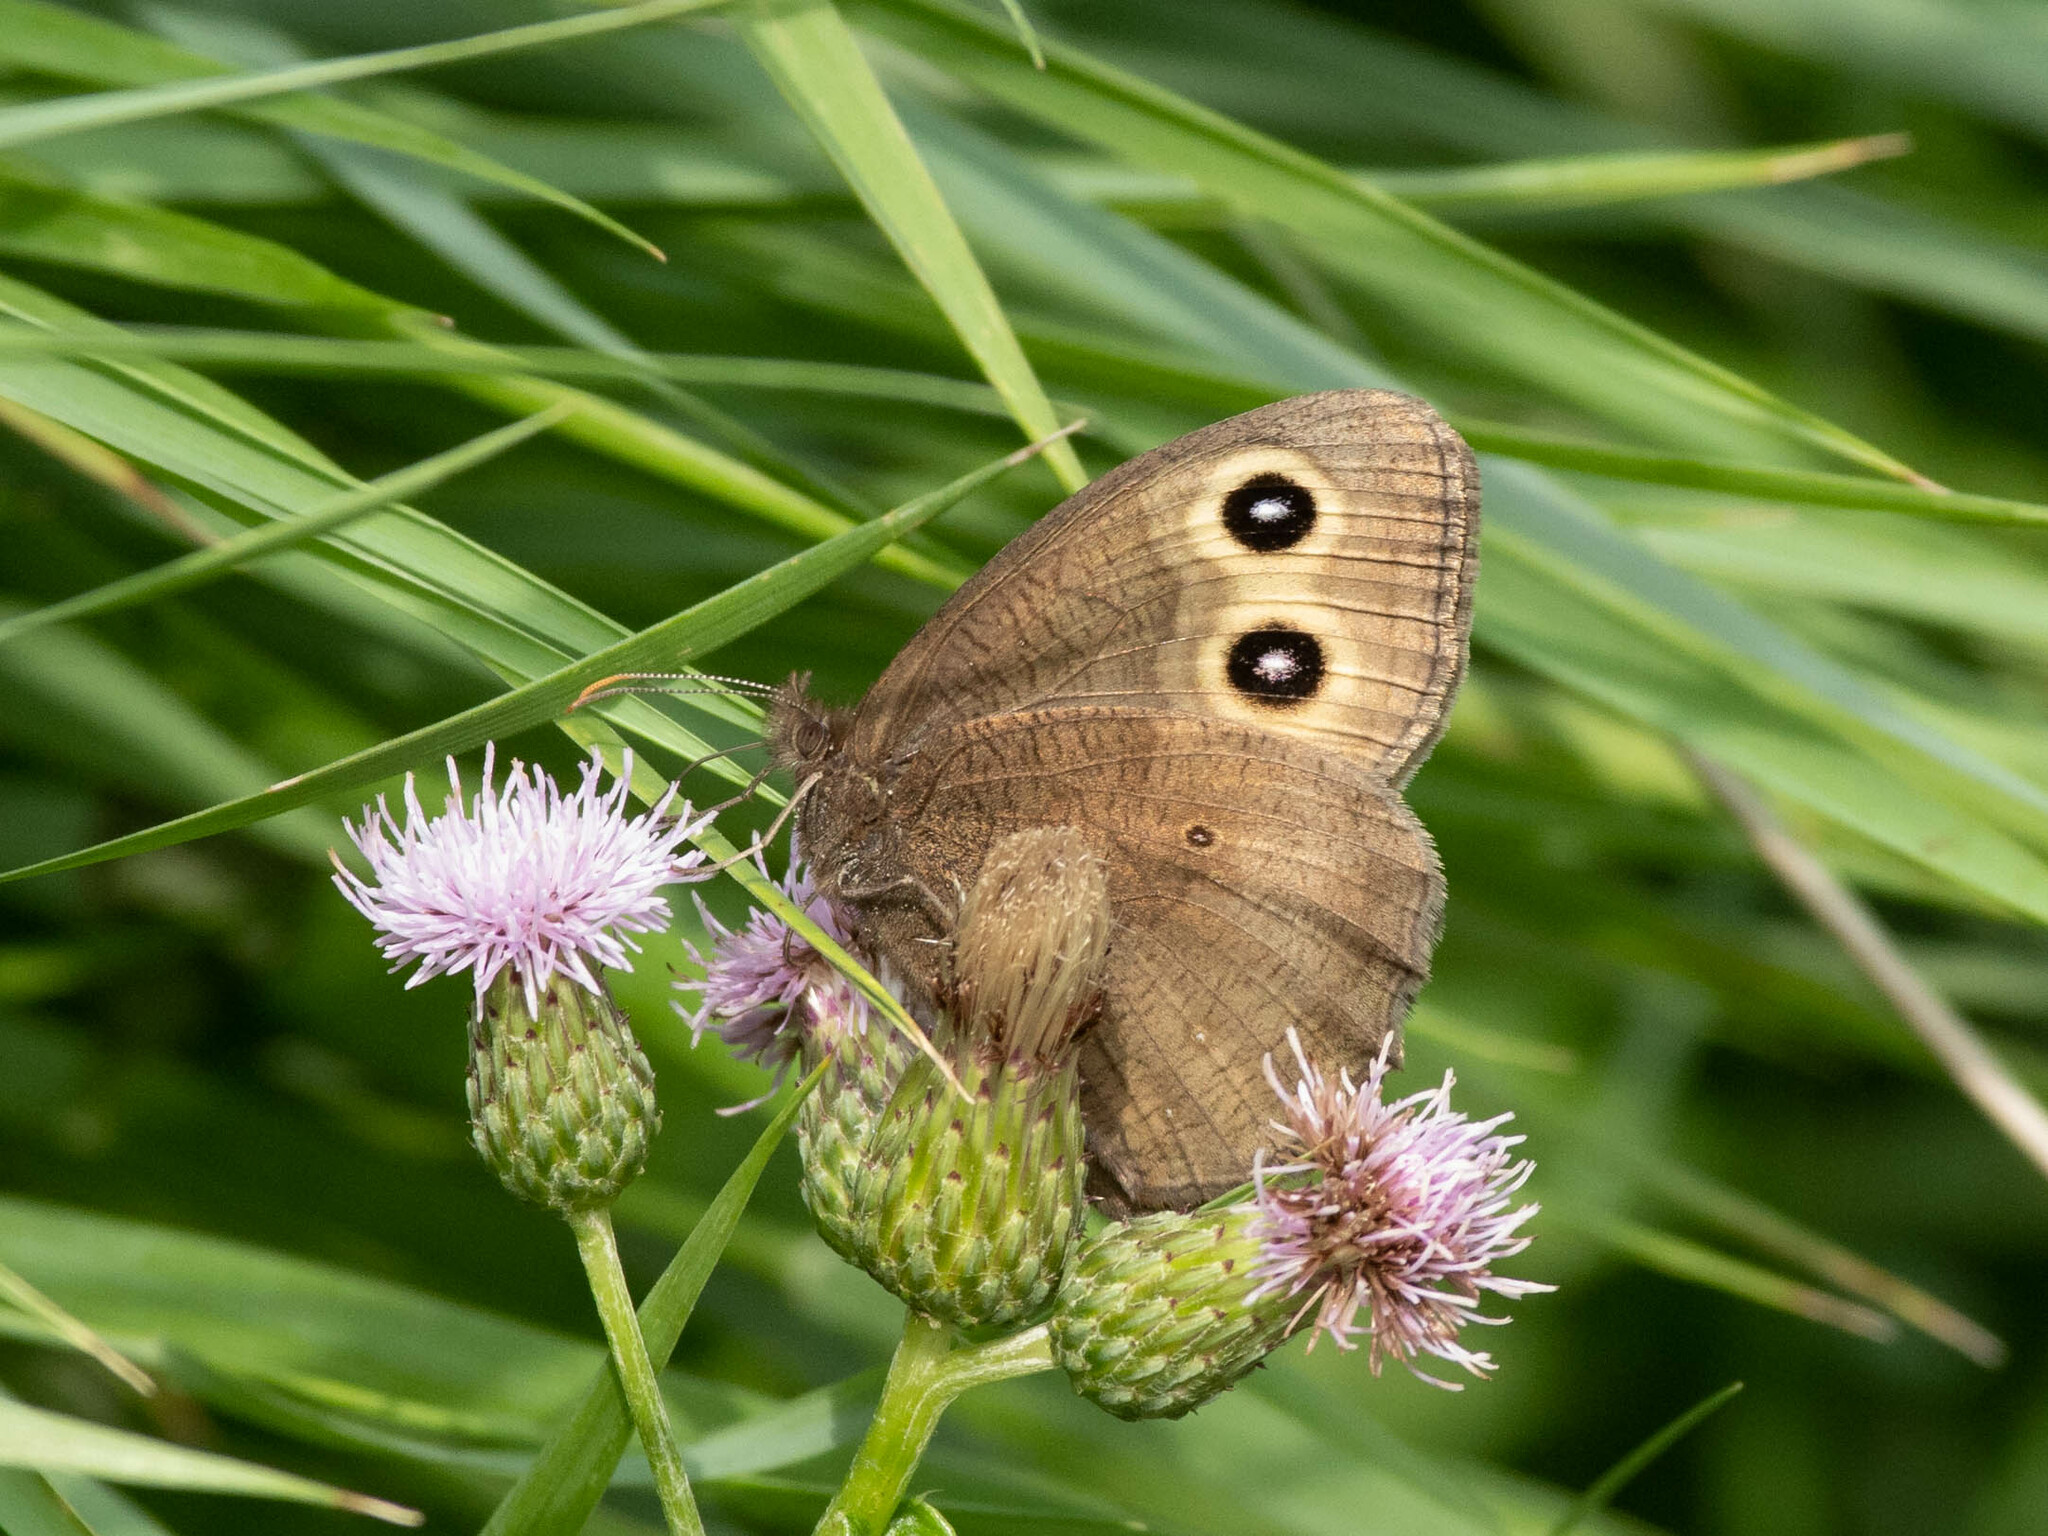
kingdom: Animalia
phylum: Arthropoda
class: Insecta
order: Lepidoptera
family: Nymphalidae
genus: Cercyonis
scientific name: Cercyonis pegala
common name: Common wood-nymph
